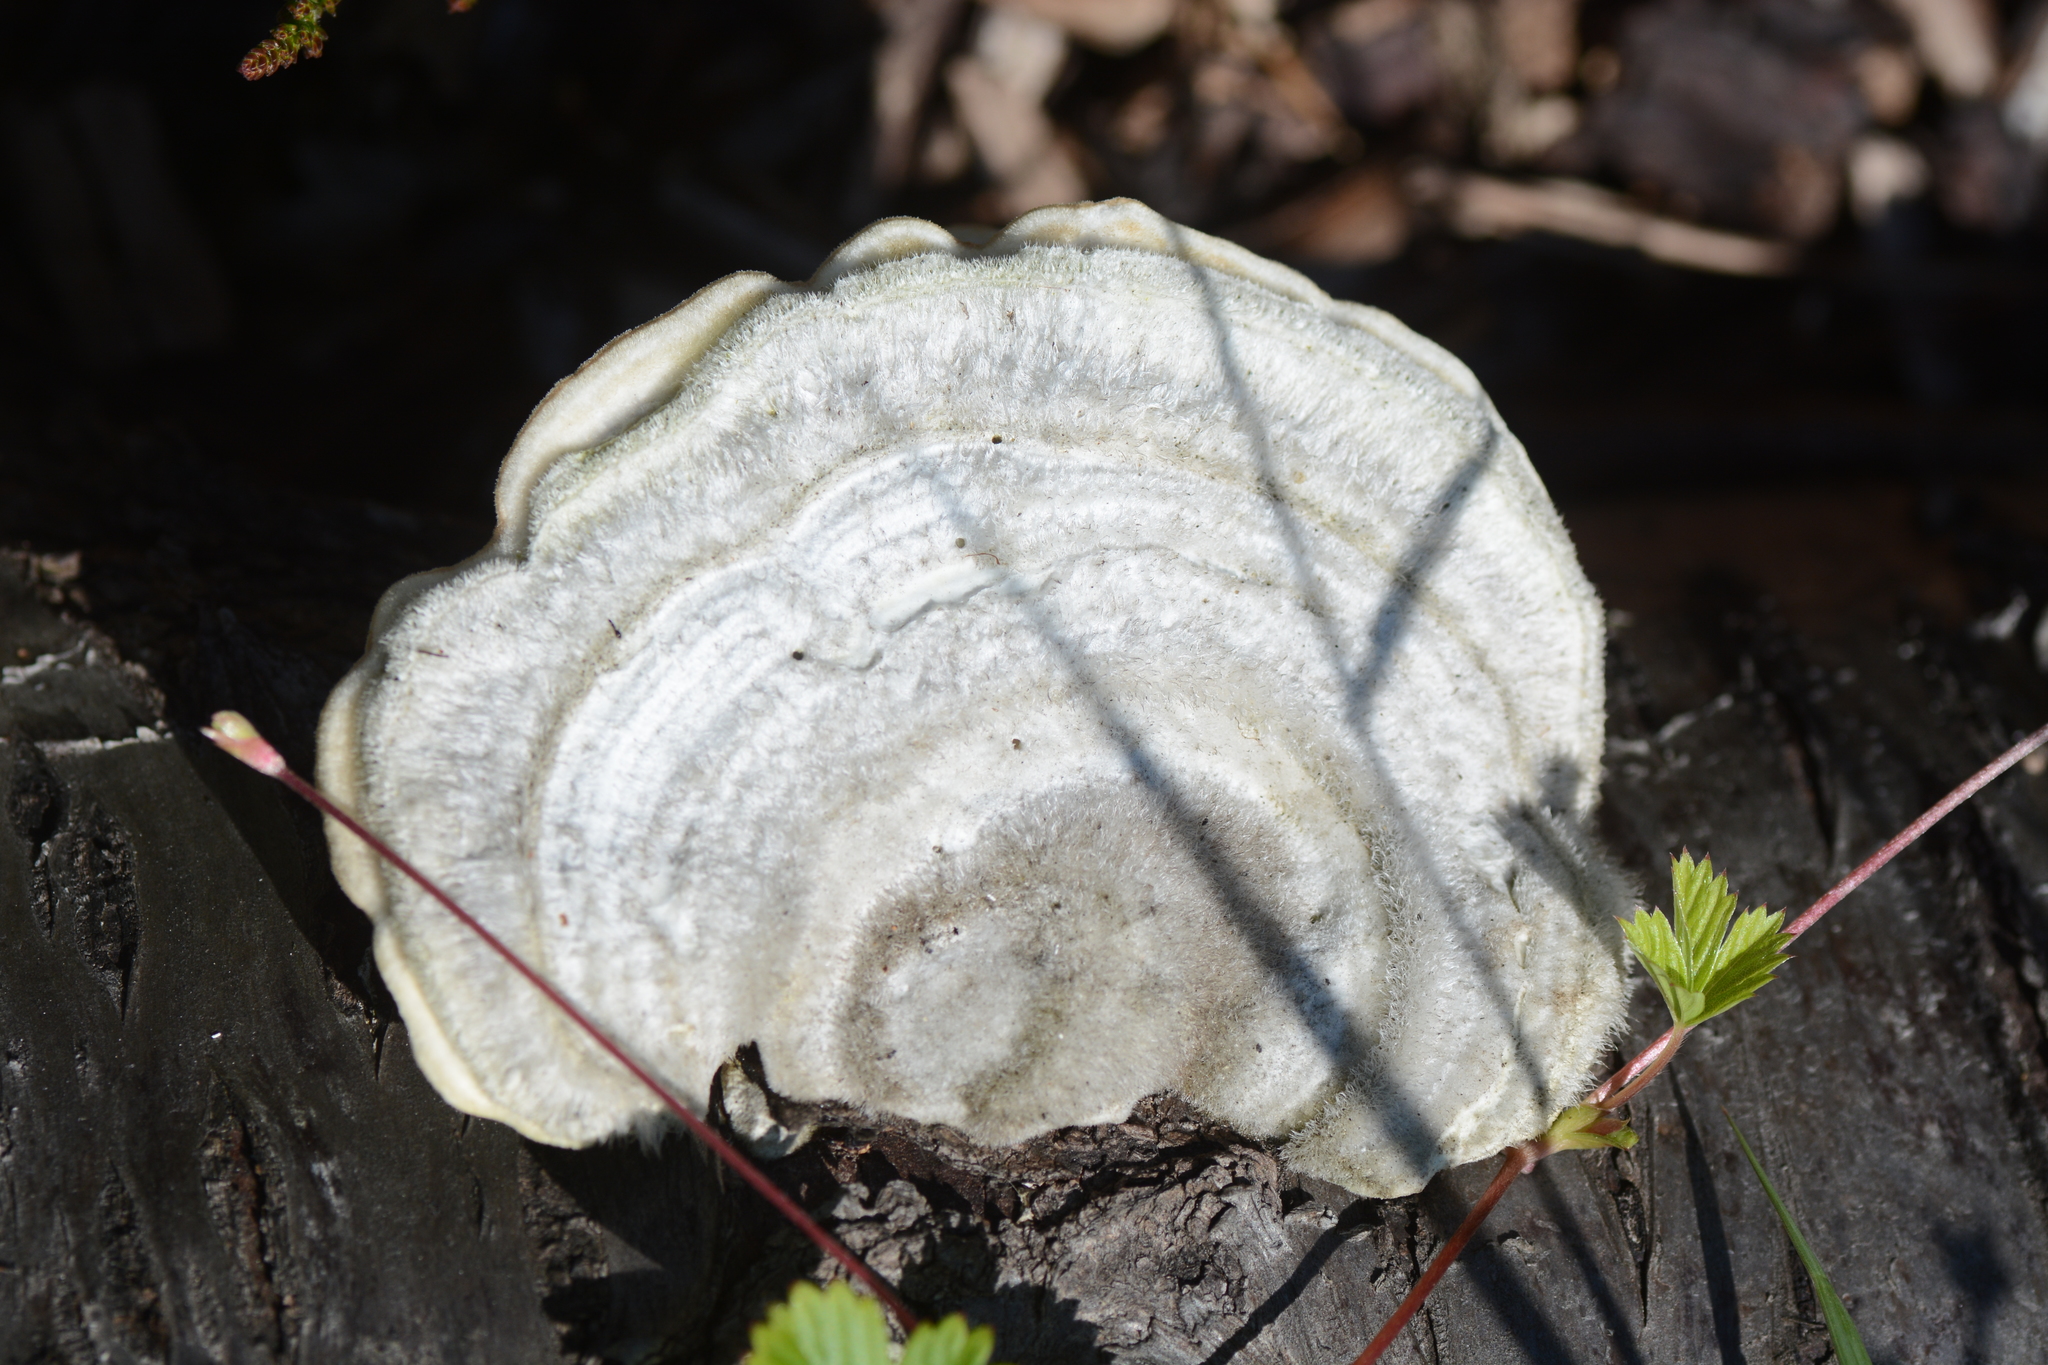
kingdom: Fungi
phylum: Basidiomycota
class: Agaricomycetes
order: Polyporales
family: Polyporaceae
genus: Trametes
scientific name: Trametes hirsuta
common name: Hairy bracket
